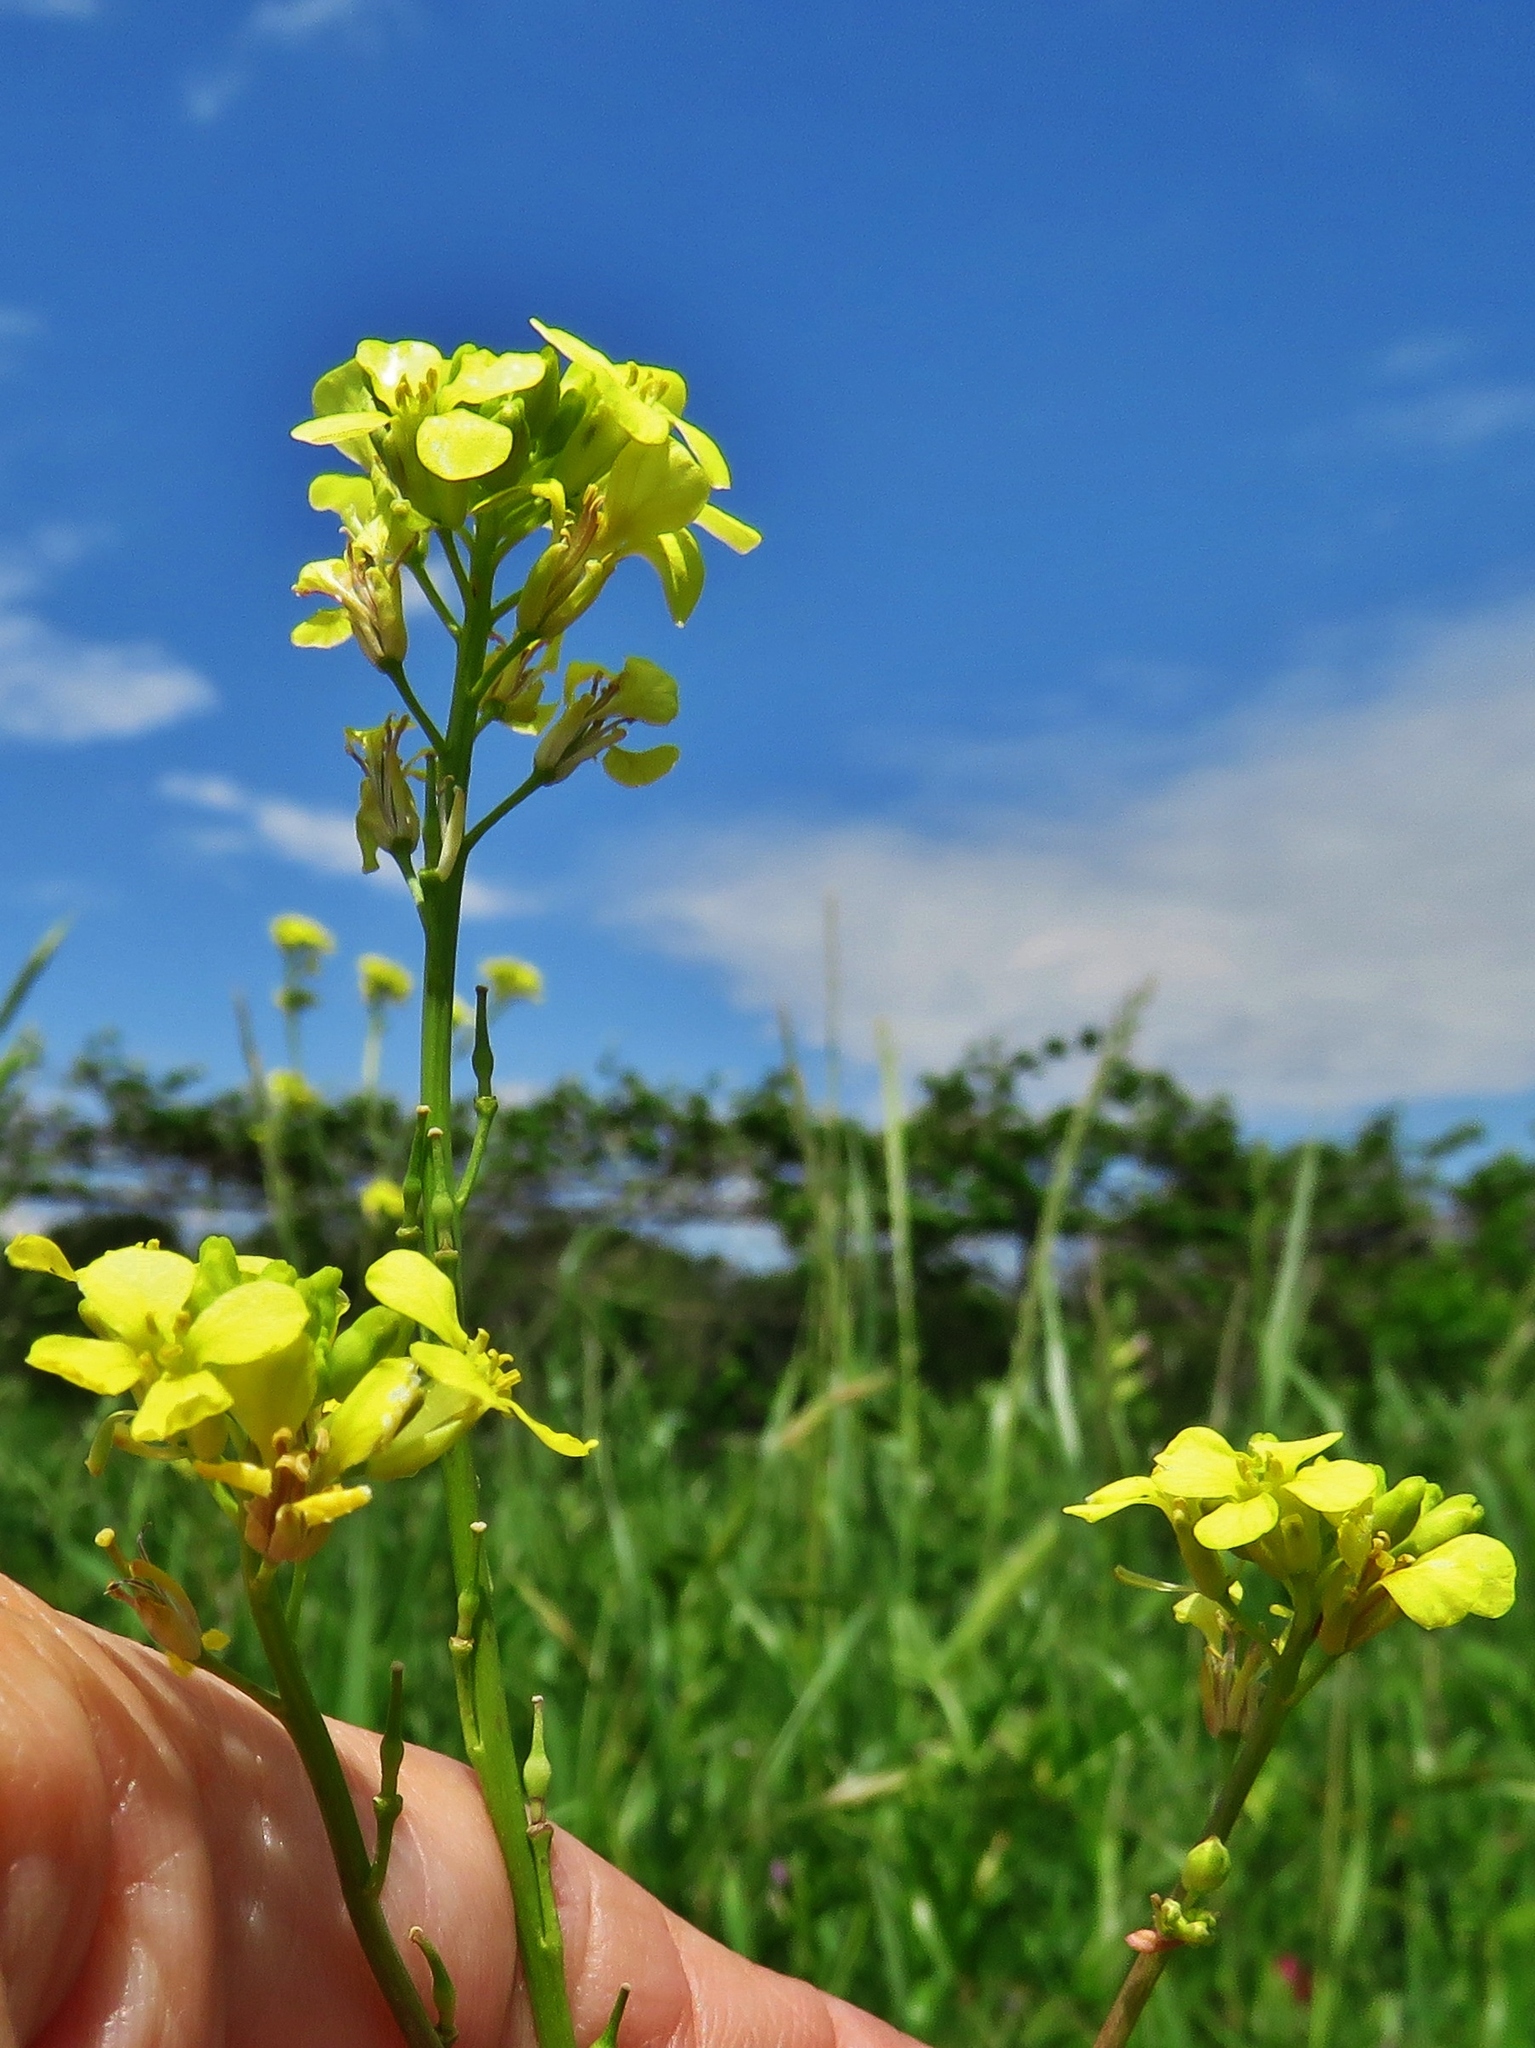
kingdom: Plantae
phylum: Tracheophyta
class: Magnoliopsida
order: Brassicales
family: Brassicaceae
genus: Rapistrum
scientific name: Rapistrum rugosum
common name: Annual bastardcabbage
